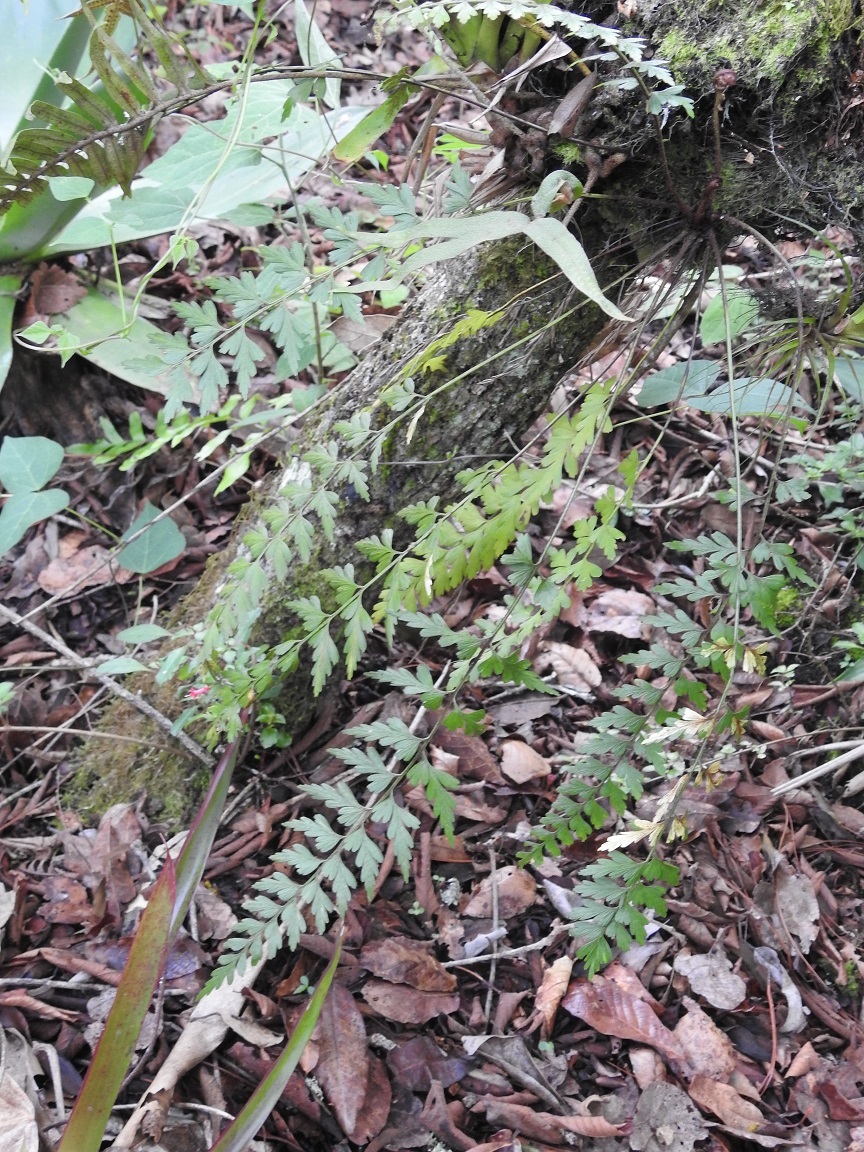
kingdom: Plantae
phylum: Tracheophyta
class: Polypodiopsida
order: Polypodiales
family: Aspleniaceae
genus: Asplenium
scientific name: Asplenium praemorsum
